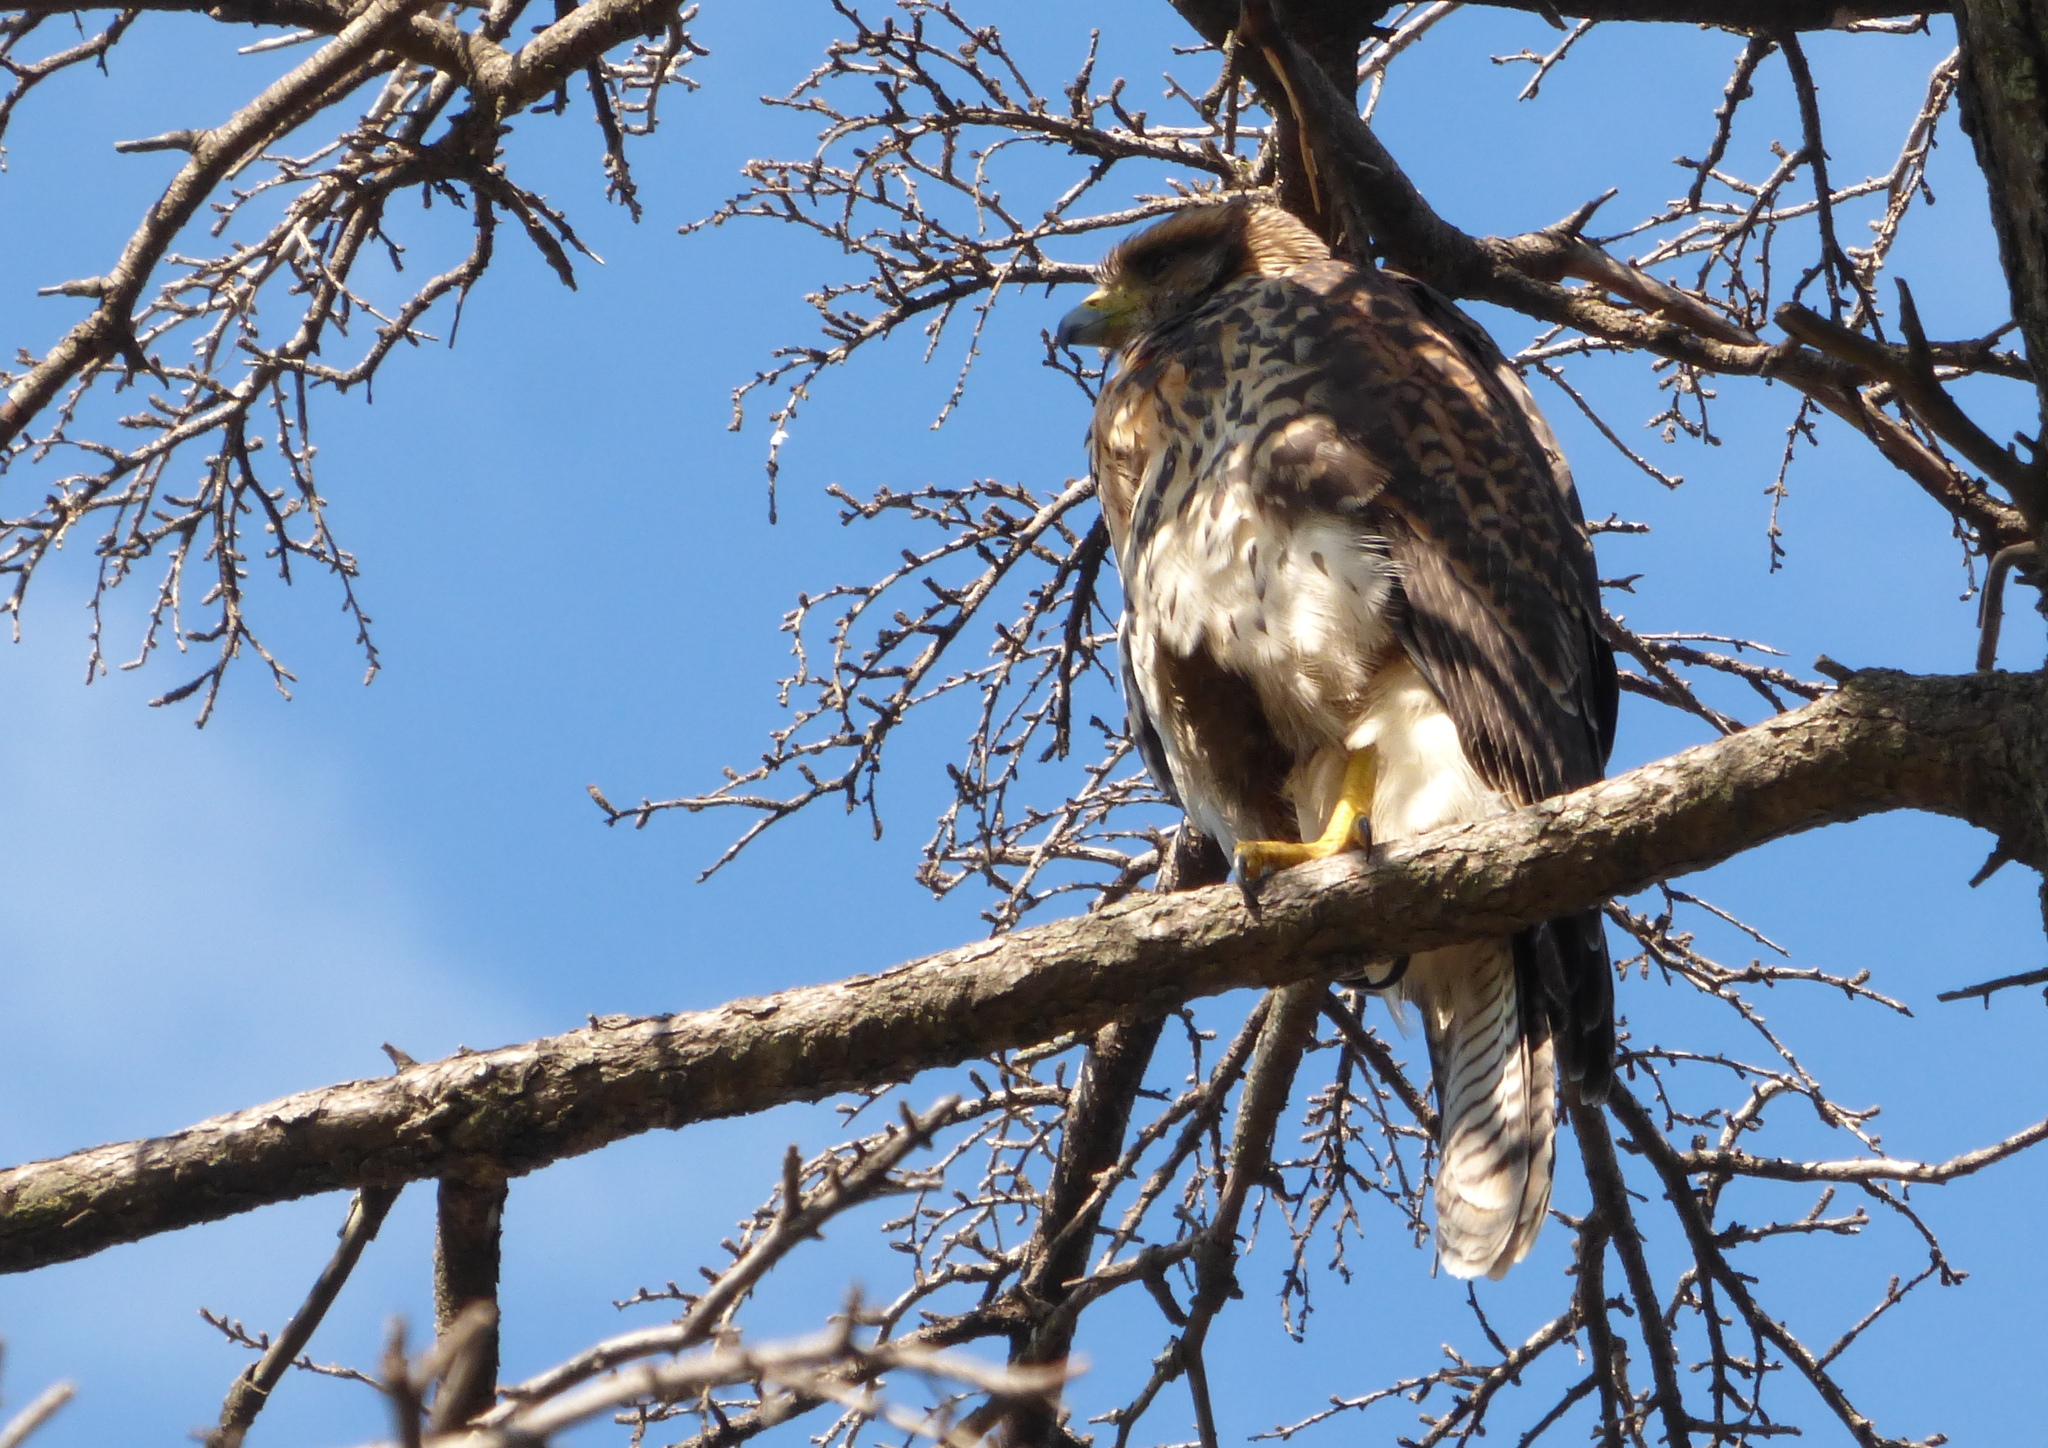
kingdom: Animalia
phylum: Chordata
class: Aves
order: Accipitriformes
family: Accipitridae
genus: Parabuteo
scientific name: Parabuteo unicinctus
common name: Harris's hawk
